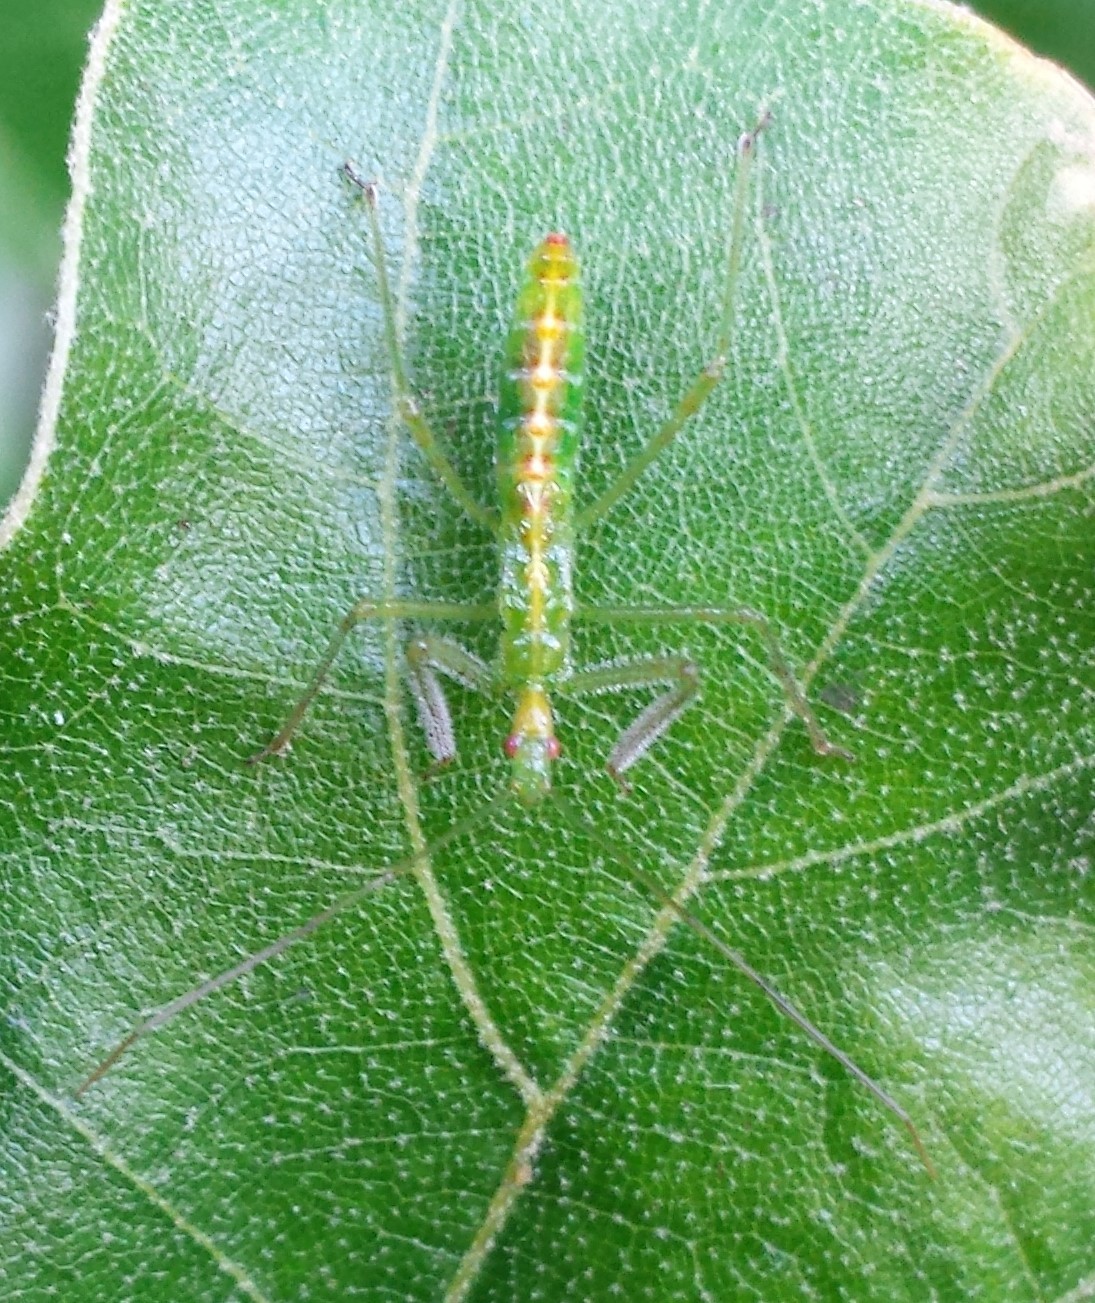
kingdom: Animalia
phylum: Arthropoda
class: Insecta
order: Hemiptera
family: Reduviidae
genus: Zelus
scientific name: Zelus luridus
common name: Pale green assassin bug
